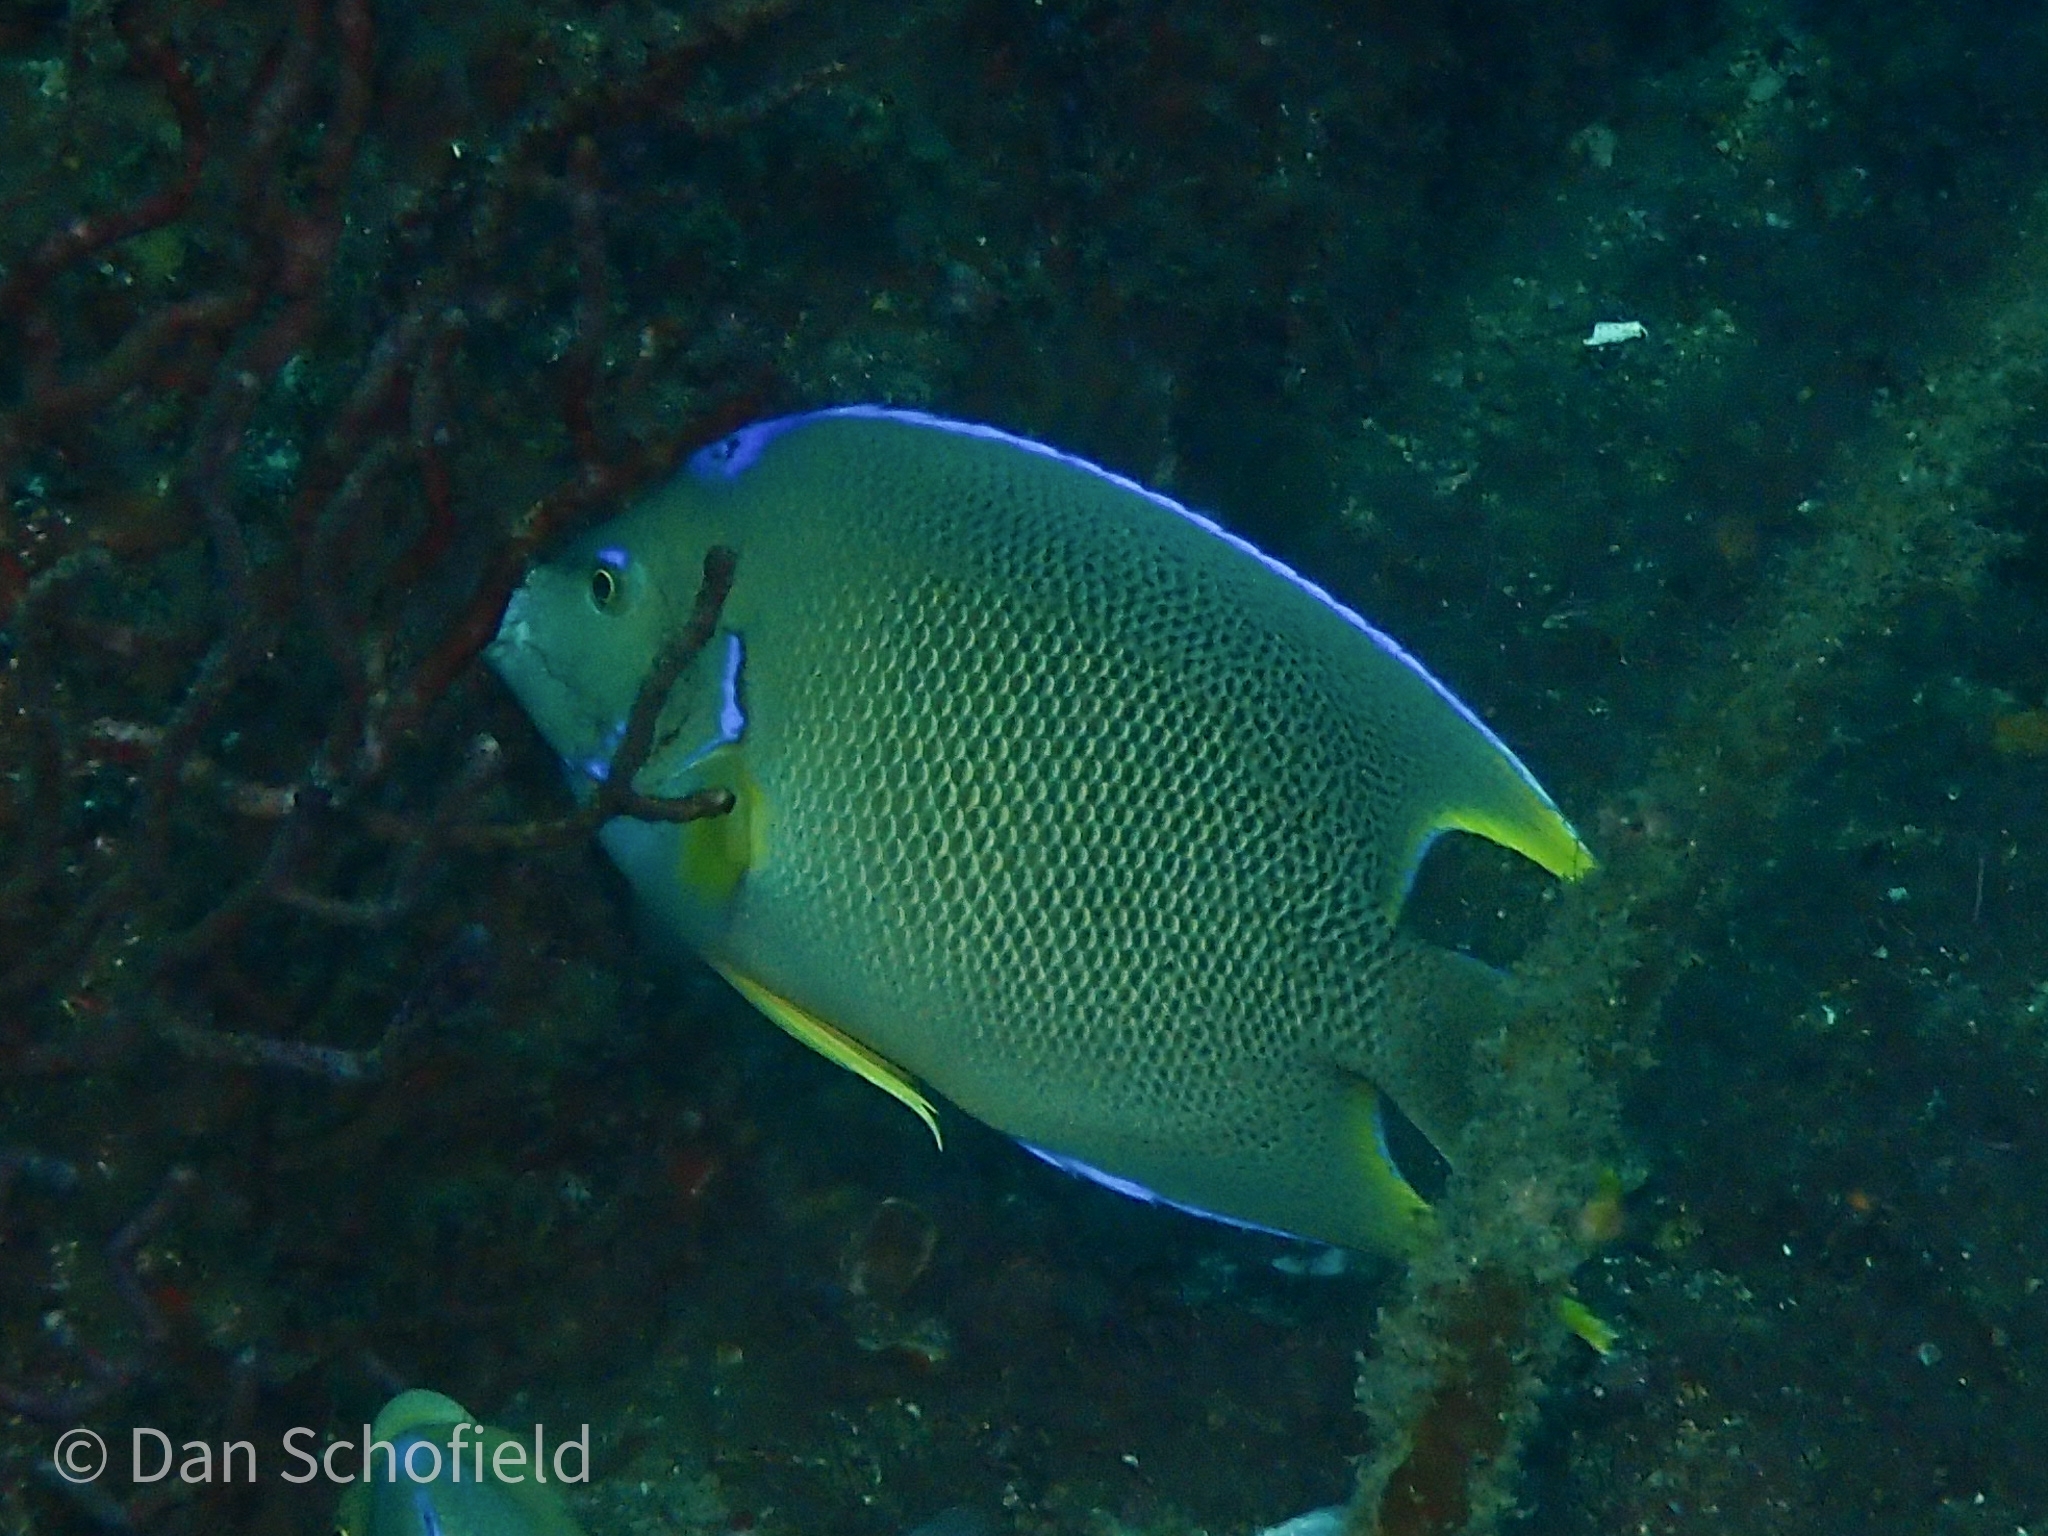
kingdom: Animalia
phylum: Chordata
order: Perciformes
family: Pomacanthidae
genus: Holacanthus
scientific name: Holacanthus bermudensis
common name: Blue angelfish
